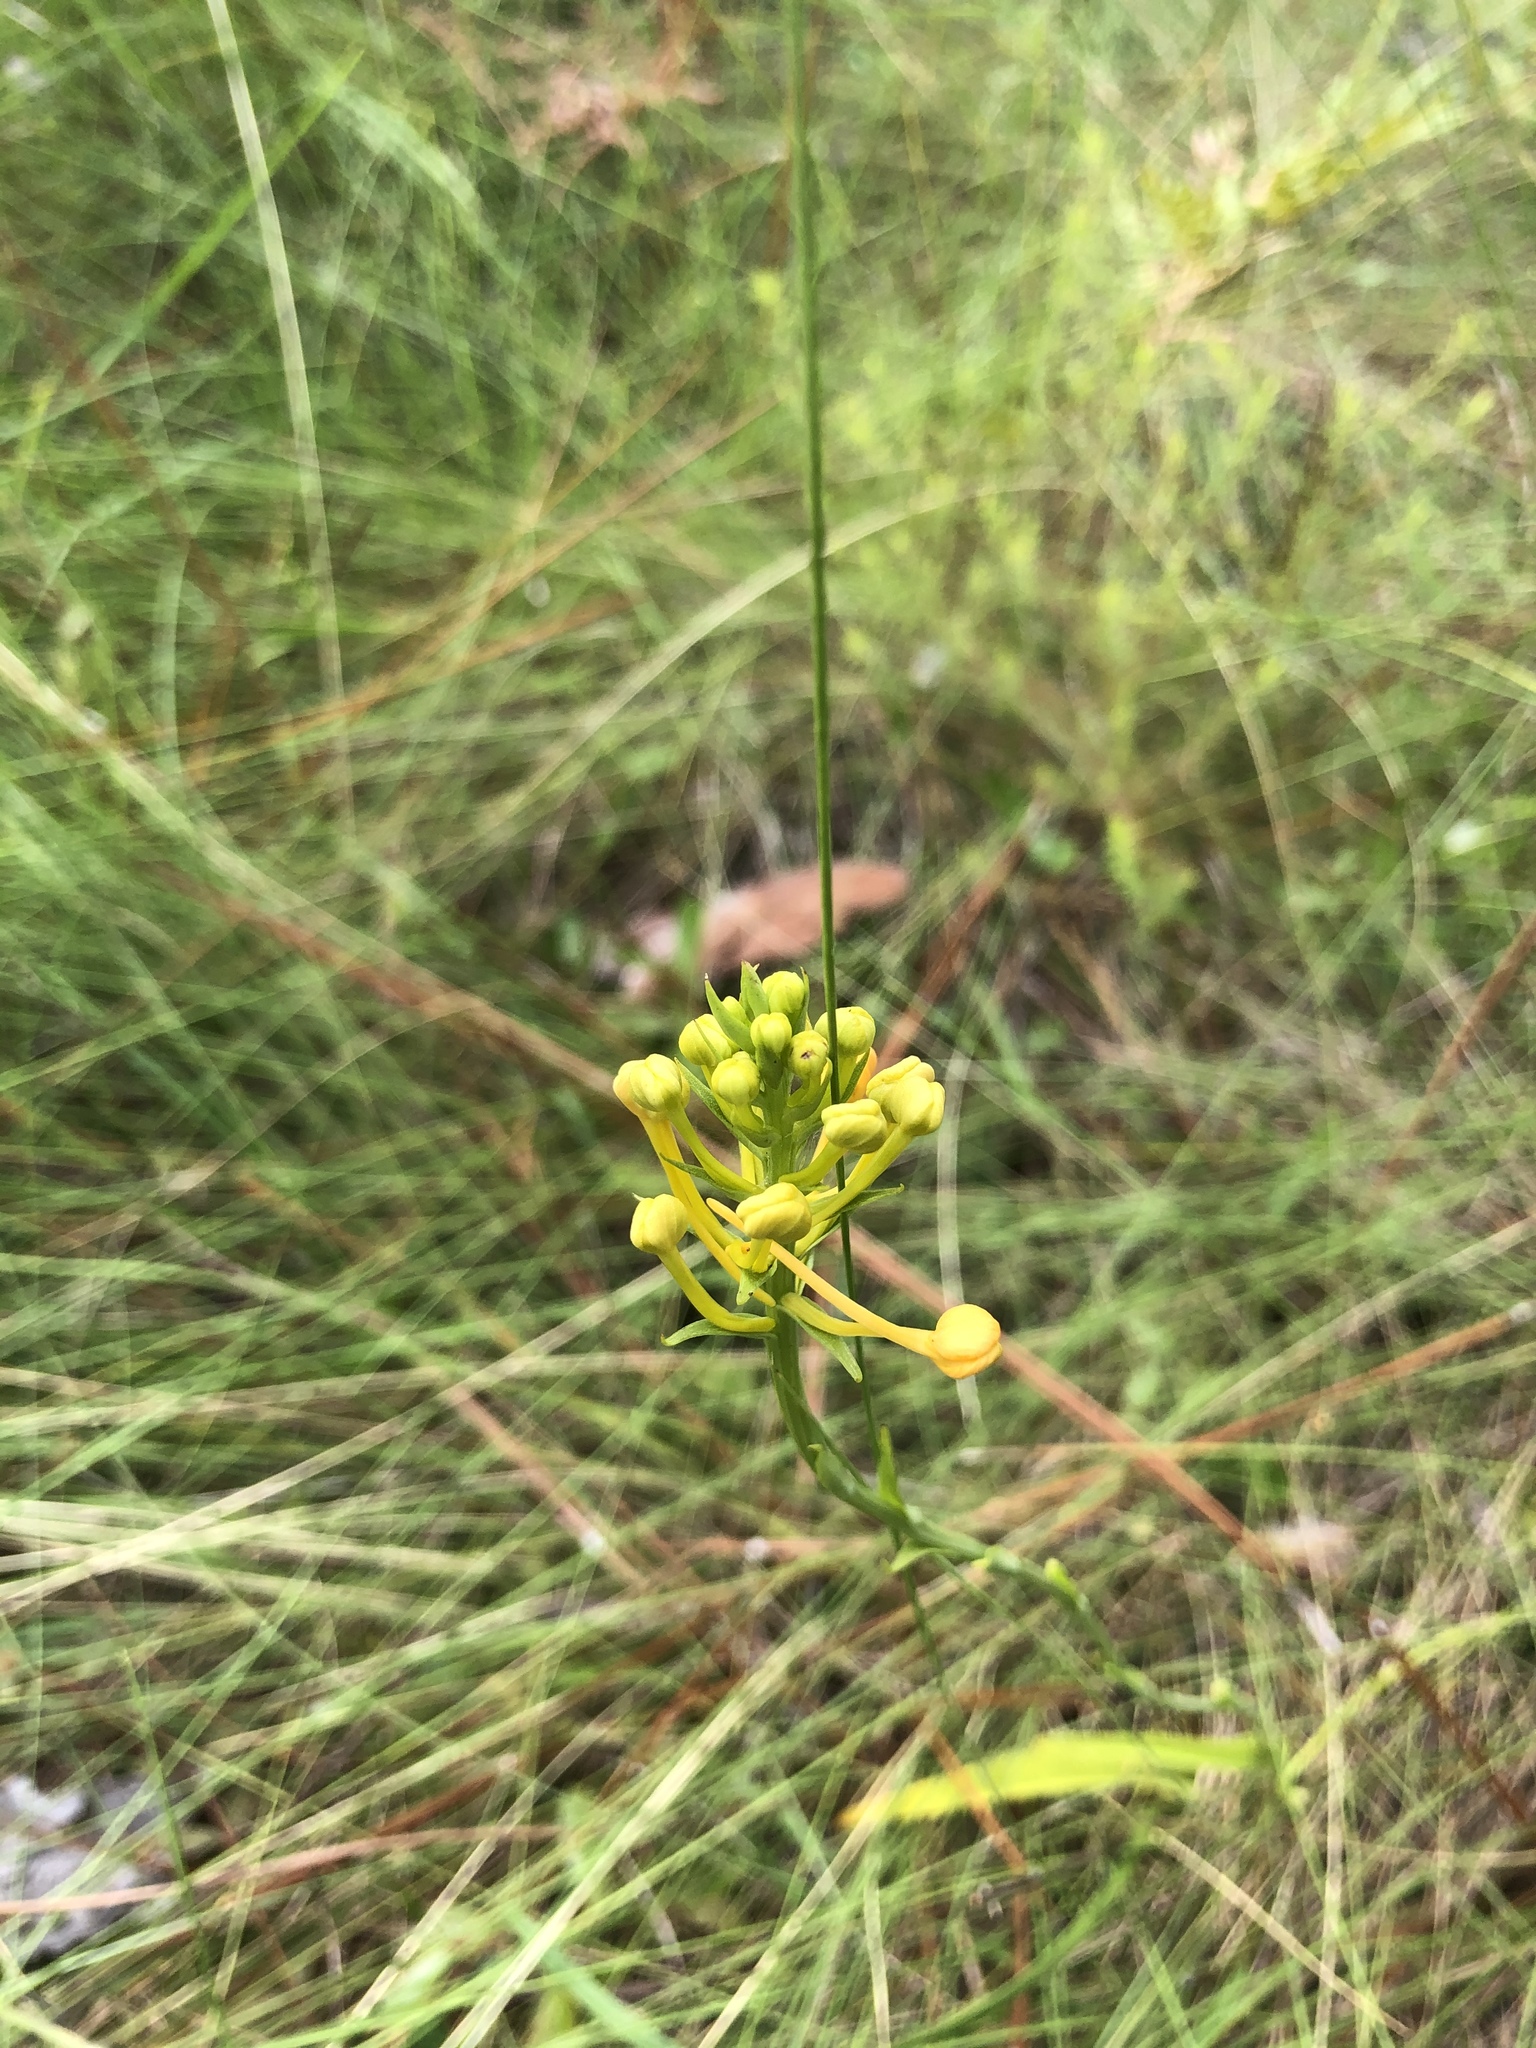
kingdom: Plantae
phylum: Tracheophyta
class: Liliopsida
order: Asparagales
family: Orchidaceae
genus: Platanthera
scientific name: Platanthera ciliaris
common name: Yellow fringed orchid
